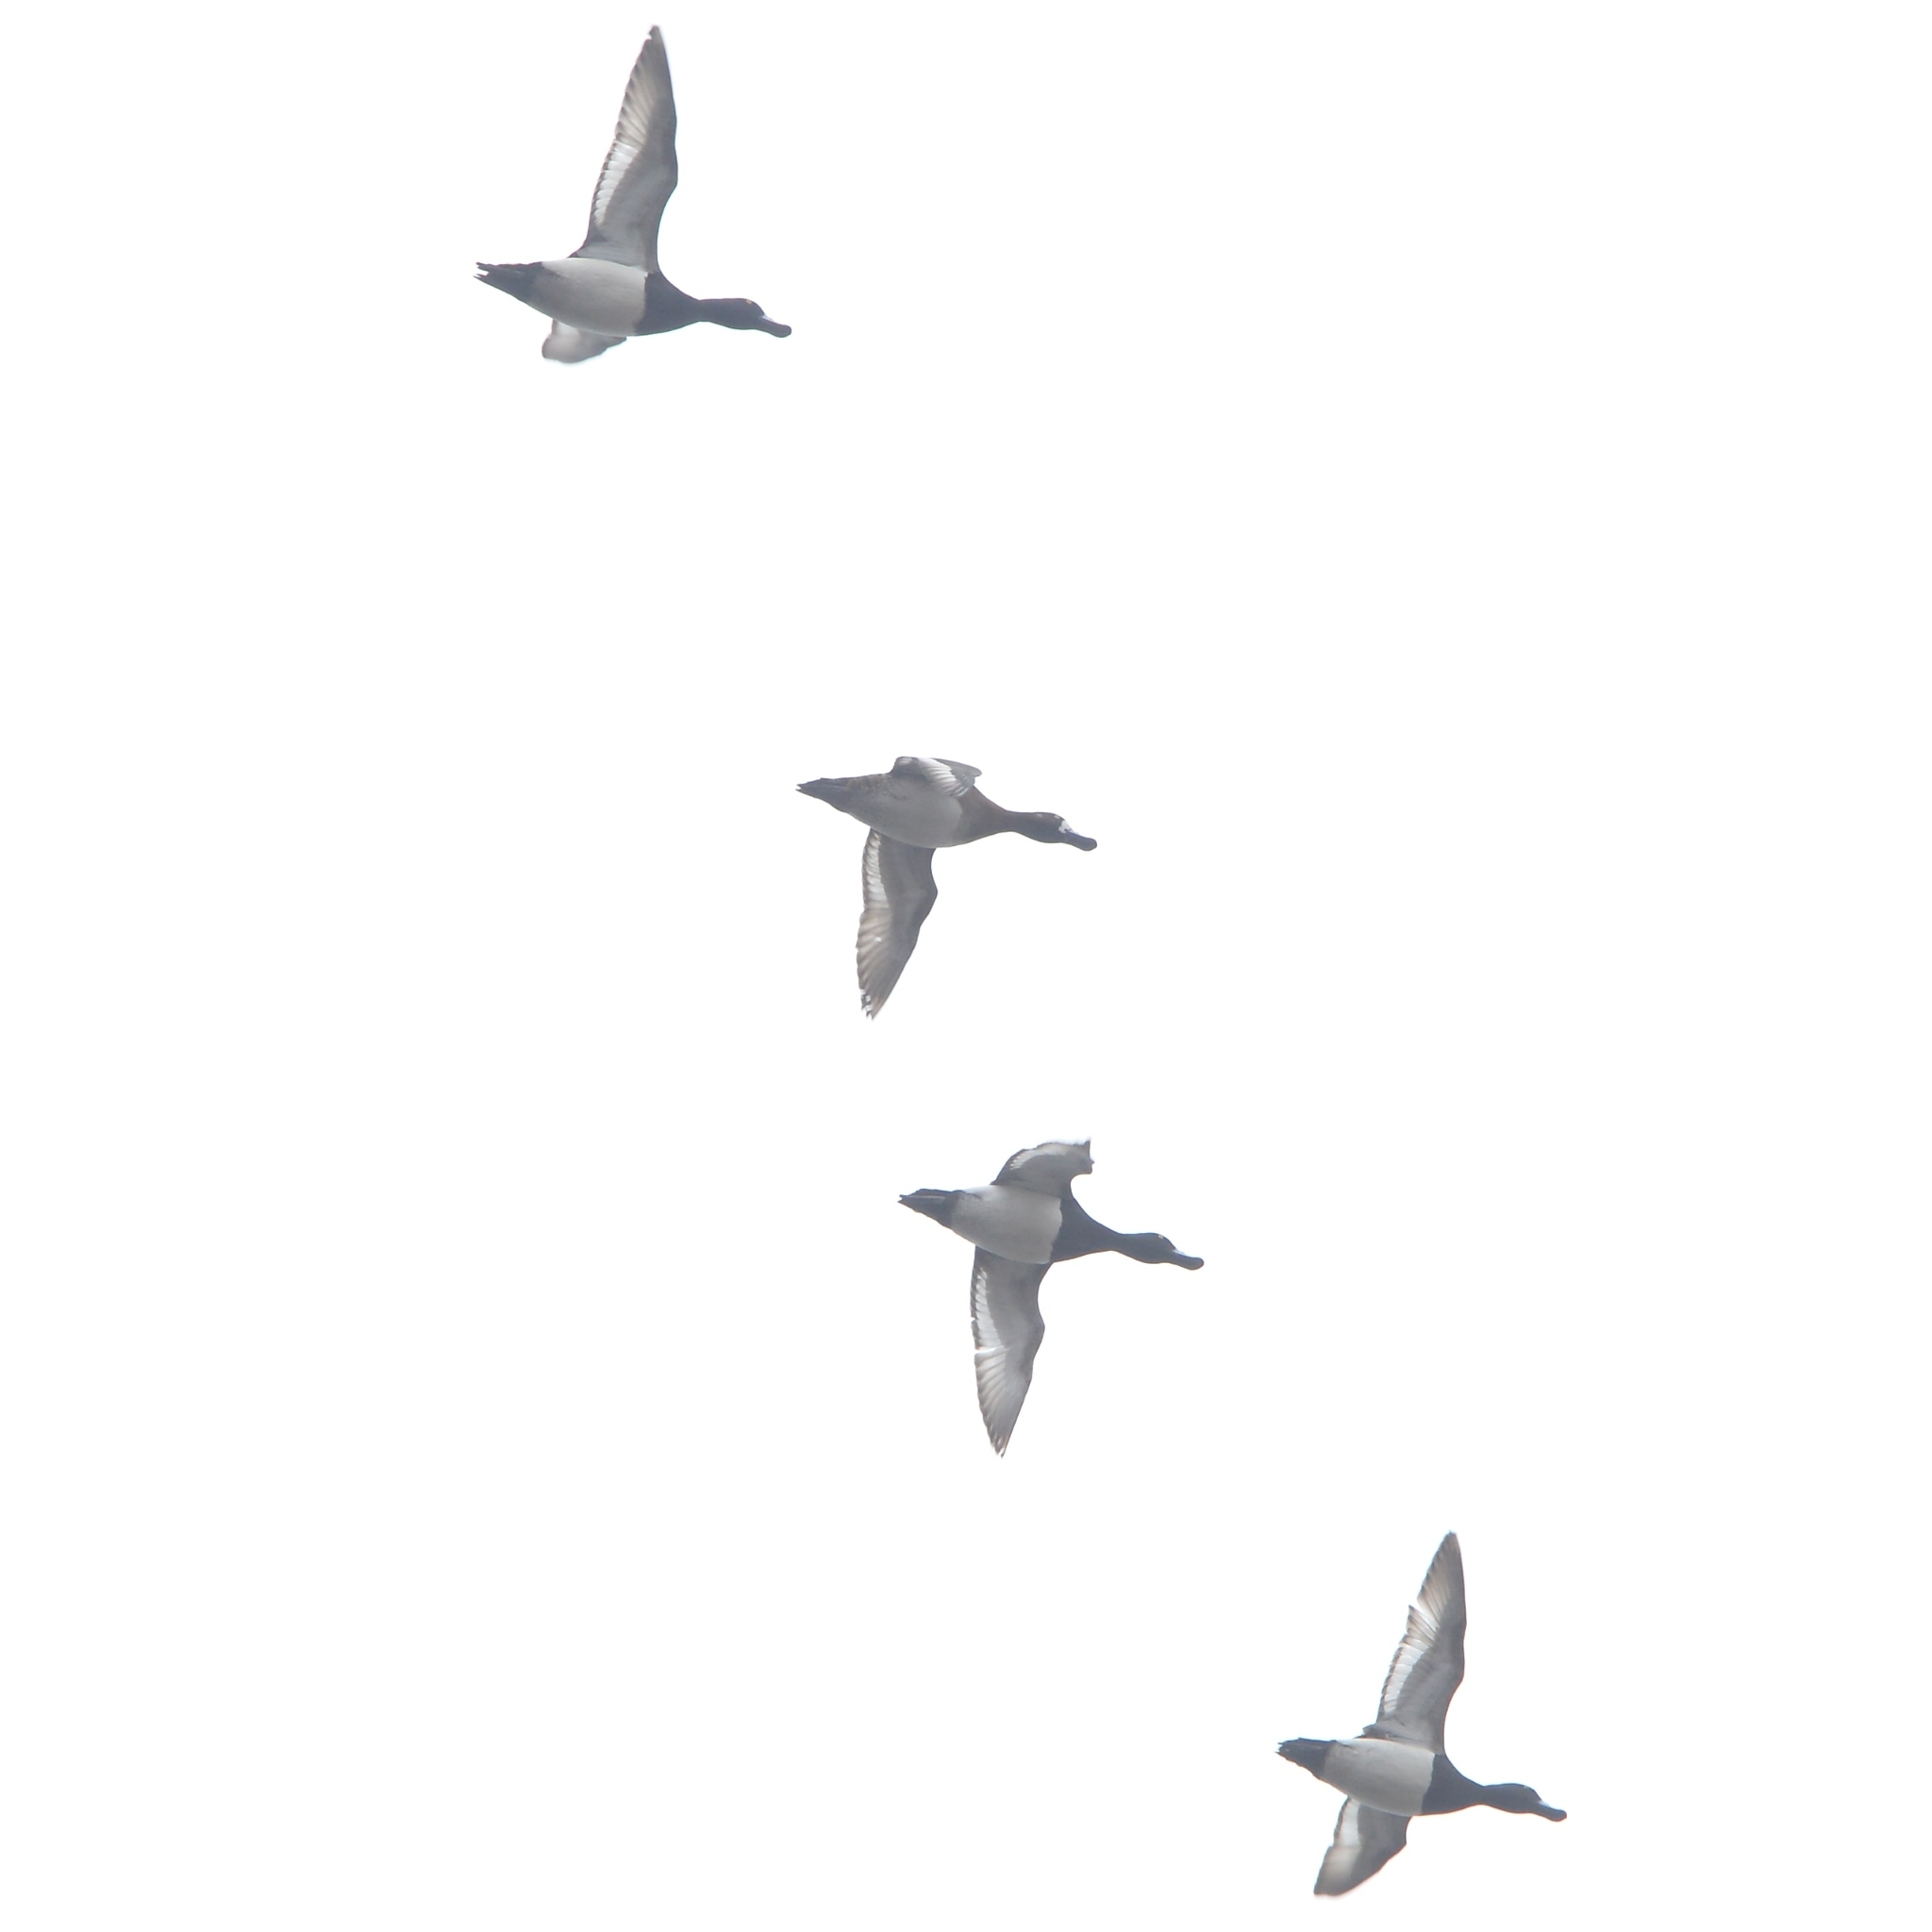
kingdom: Animalia
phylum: Chordata
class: Aves
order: Anseriformes
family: Anatidae
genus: Aythya
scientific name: Aythya marila
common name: Greater scaup
